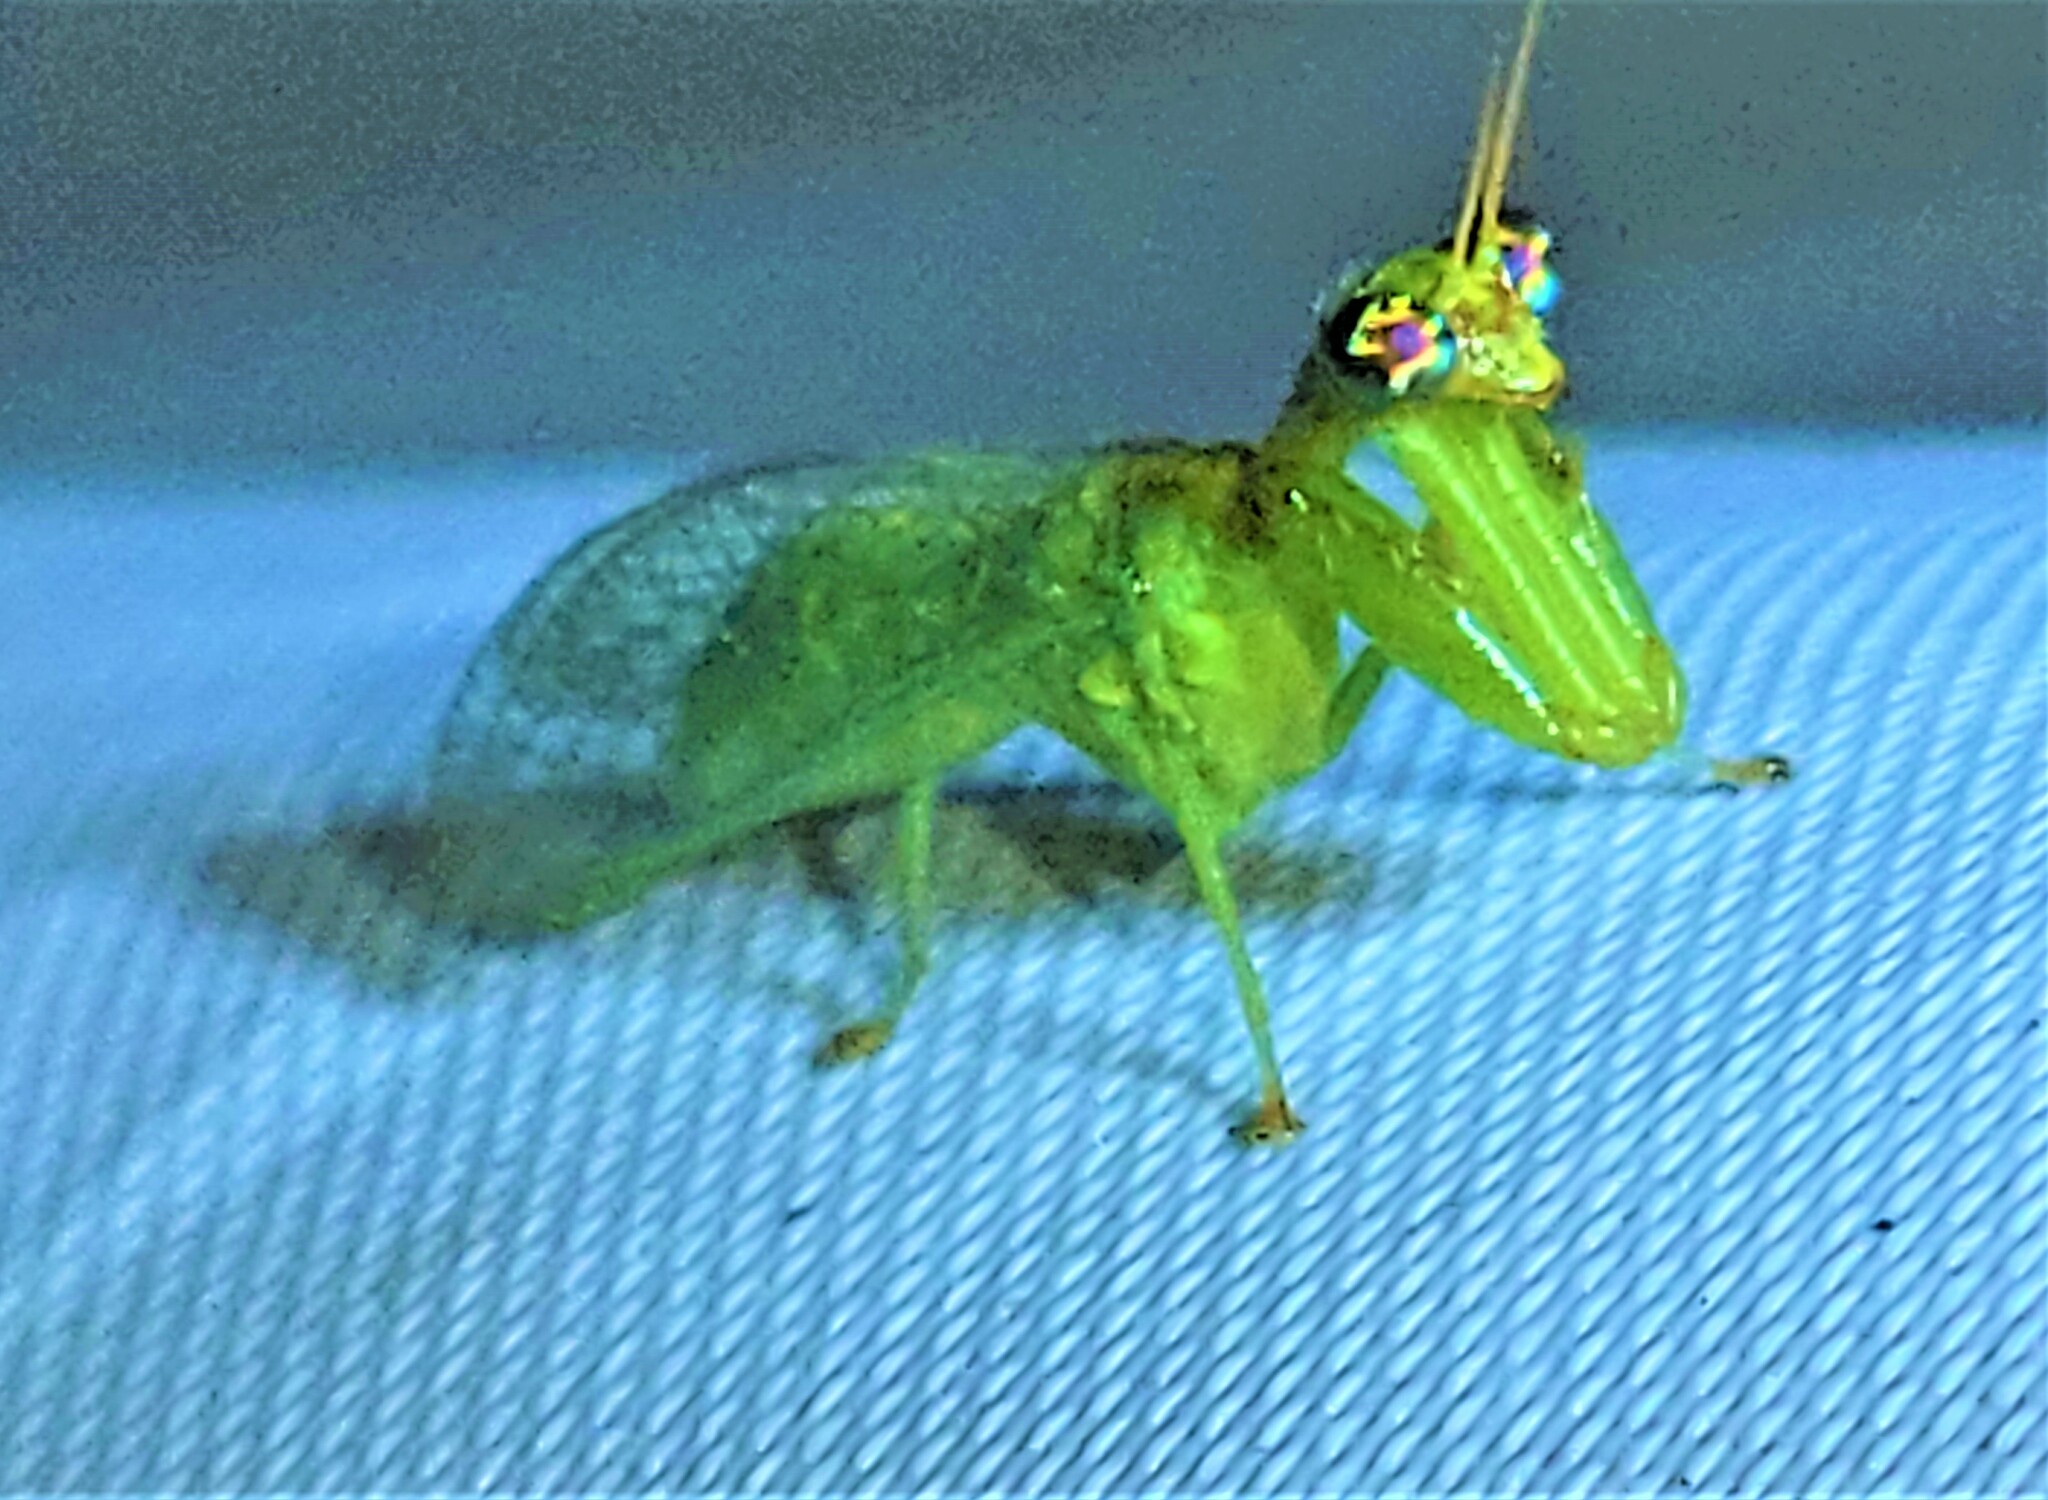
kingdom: Animalia
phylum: Arthropoda
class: Insecta
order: Neuroptera
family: Mantispidae
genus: Zeugomantispa
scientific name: Zeugomantispa minuta
